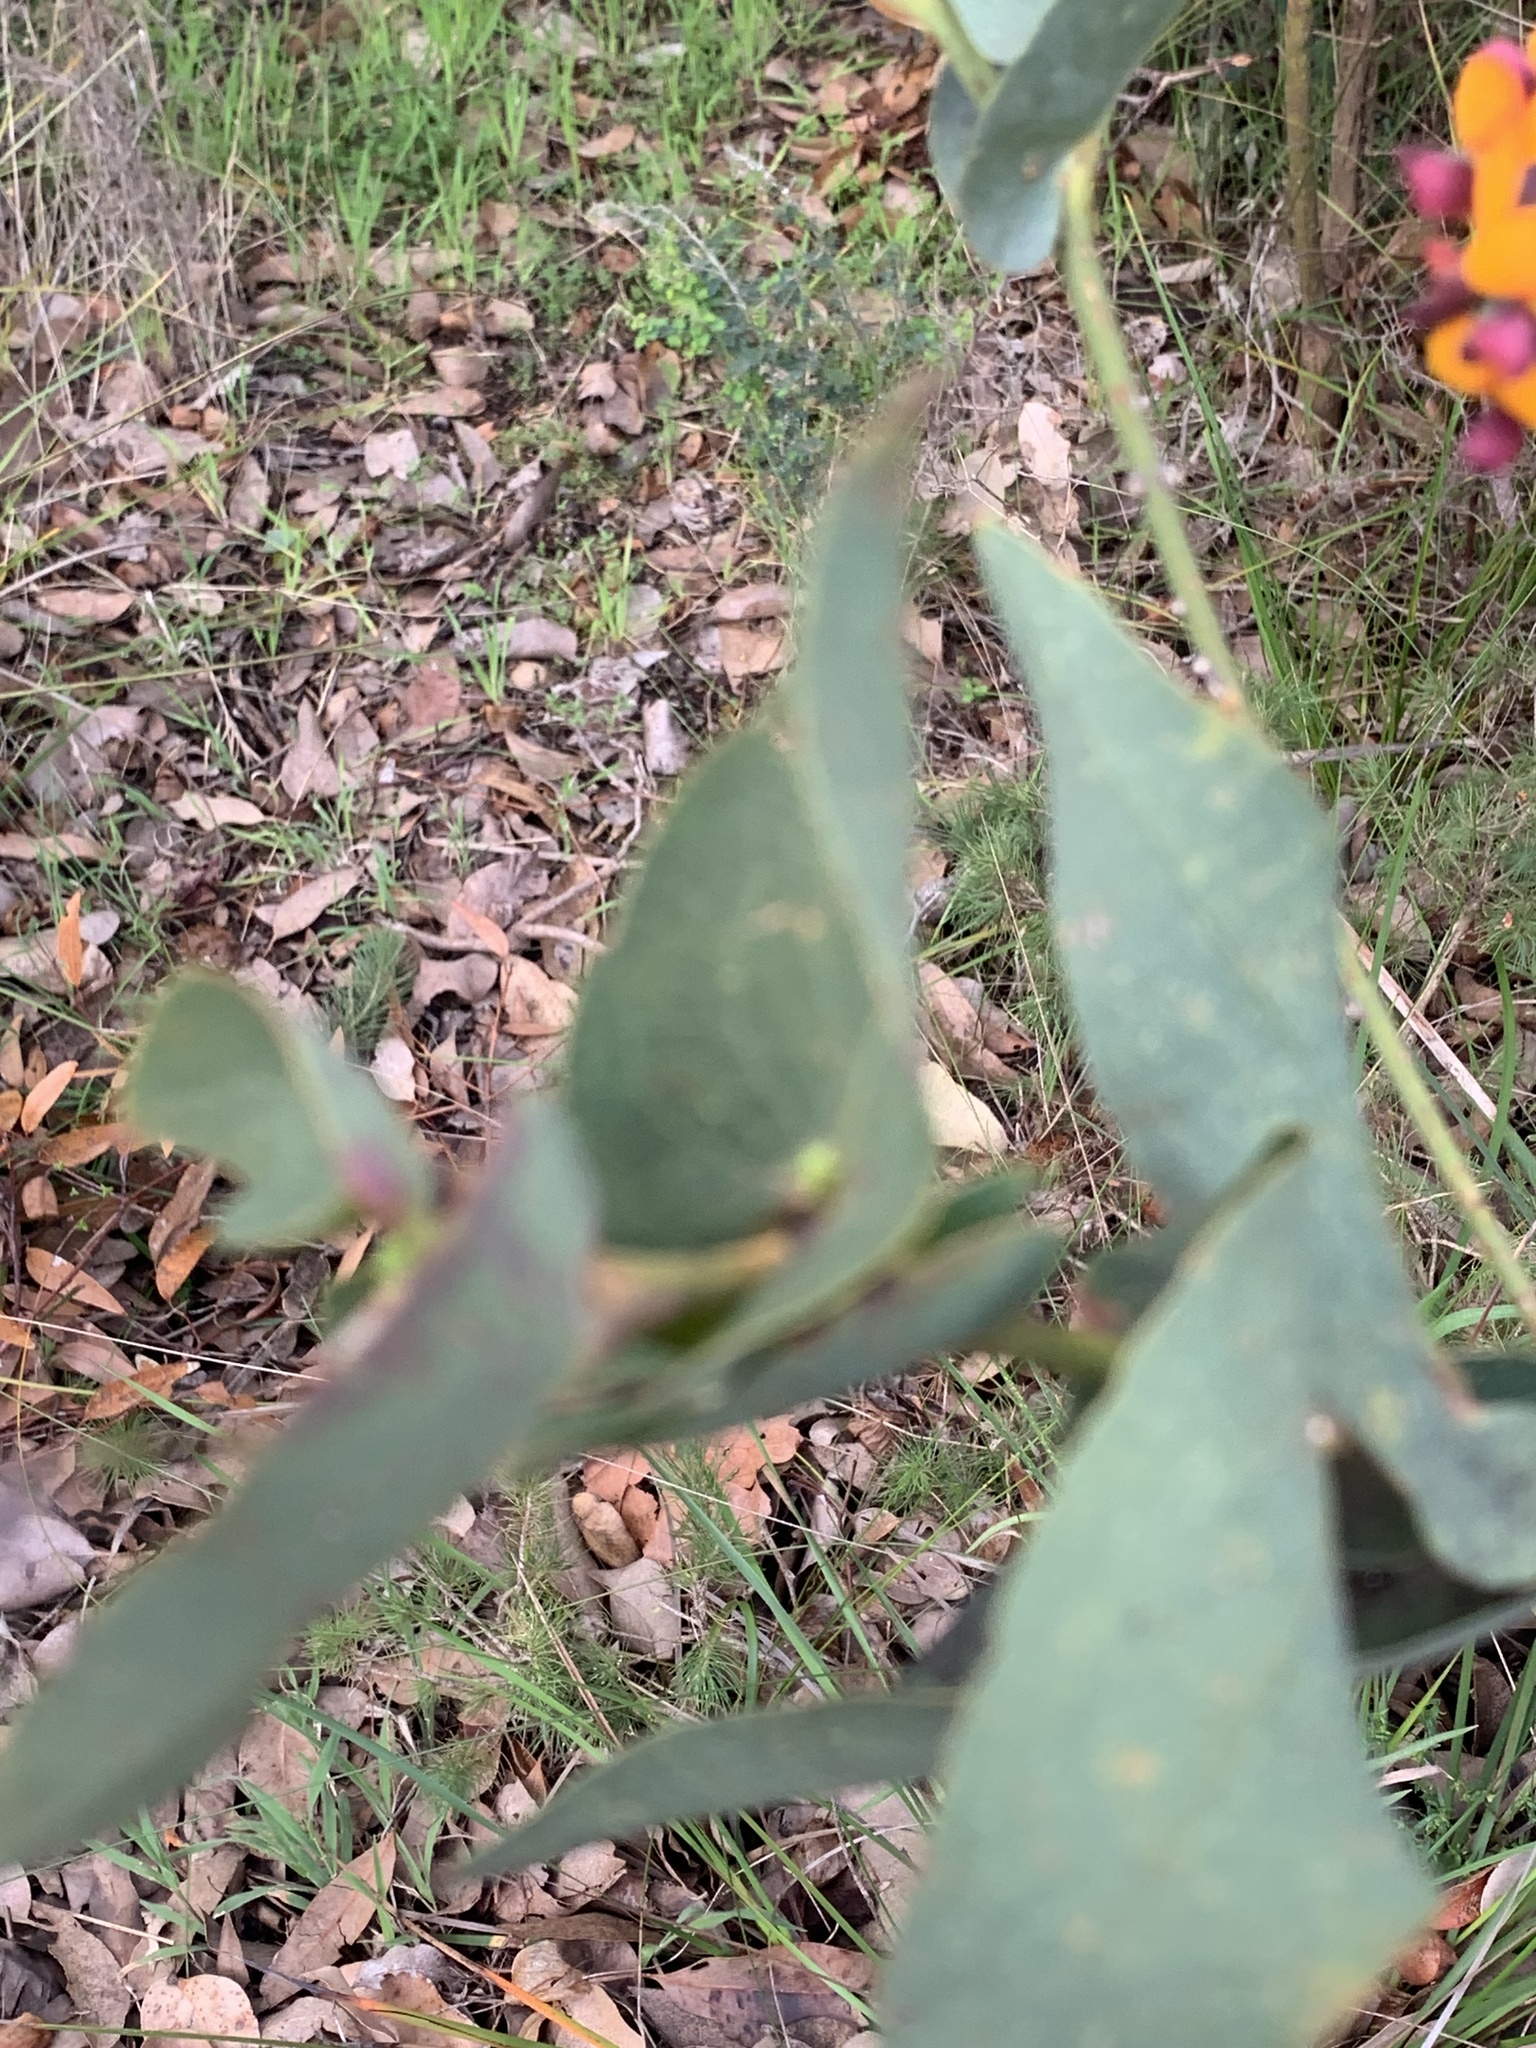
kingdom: Plantae
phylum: Tracheophyta
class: Magnoliopsida
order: Fabales
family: Fabaceae
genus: Daviesia
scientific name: Daviesia cordata
